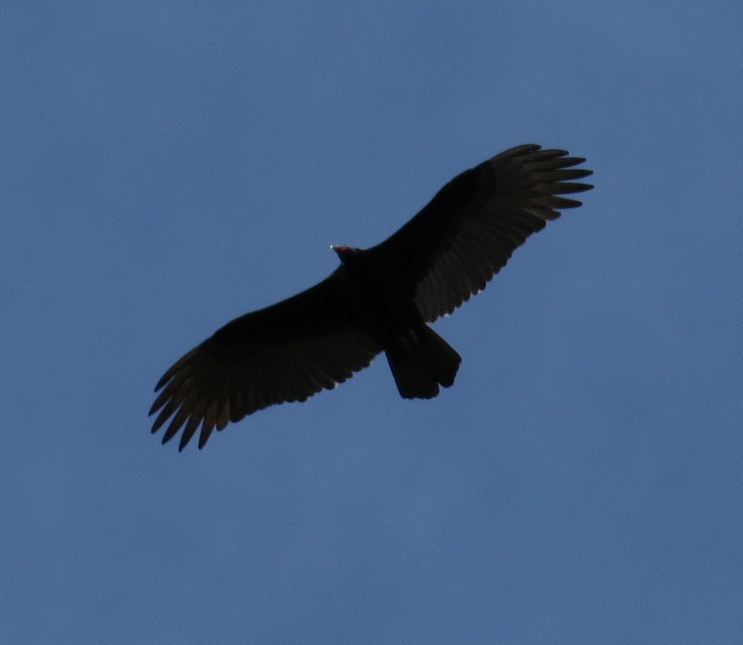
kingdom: Animalia
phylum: Chordata
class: Aves
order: Accipitriformes
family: Cathartidae
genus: Cathartes
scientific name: Cathartes aura
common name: Turkey vulture
